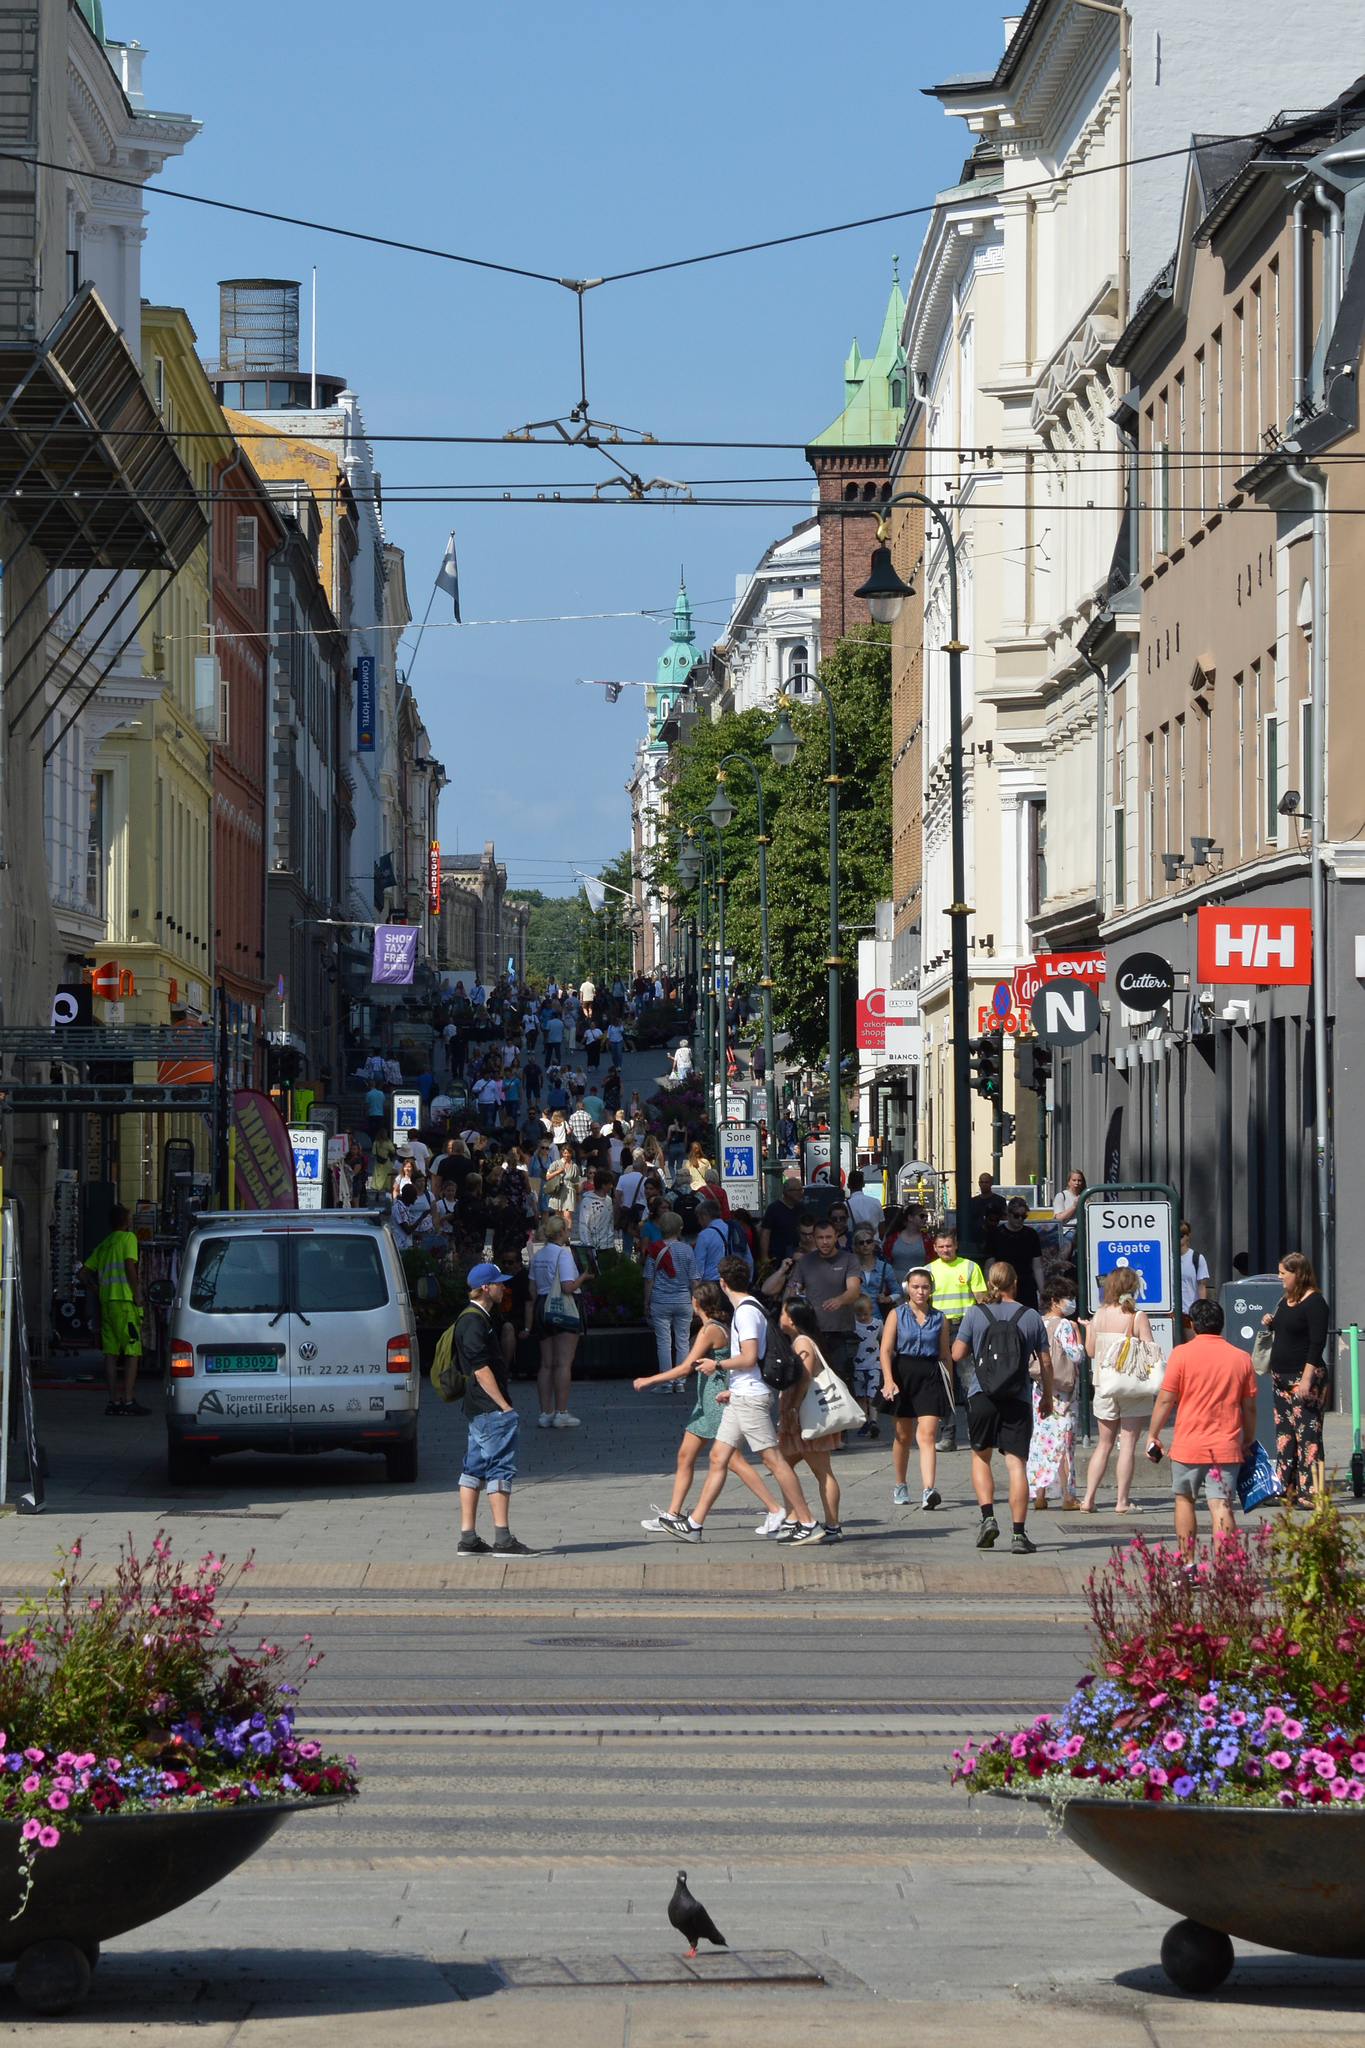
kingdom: Animalia
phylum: Chordata
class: Aves
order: Columbiformes
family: Columbidae
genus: Columba
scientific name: Columba livia
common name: Rock pigeon
